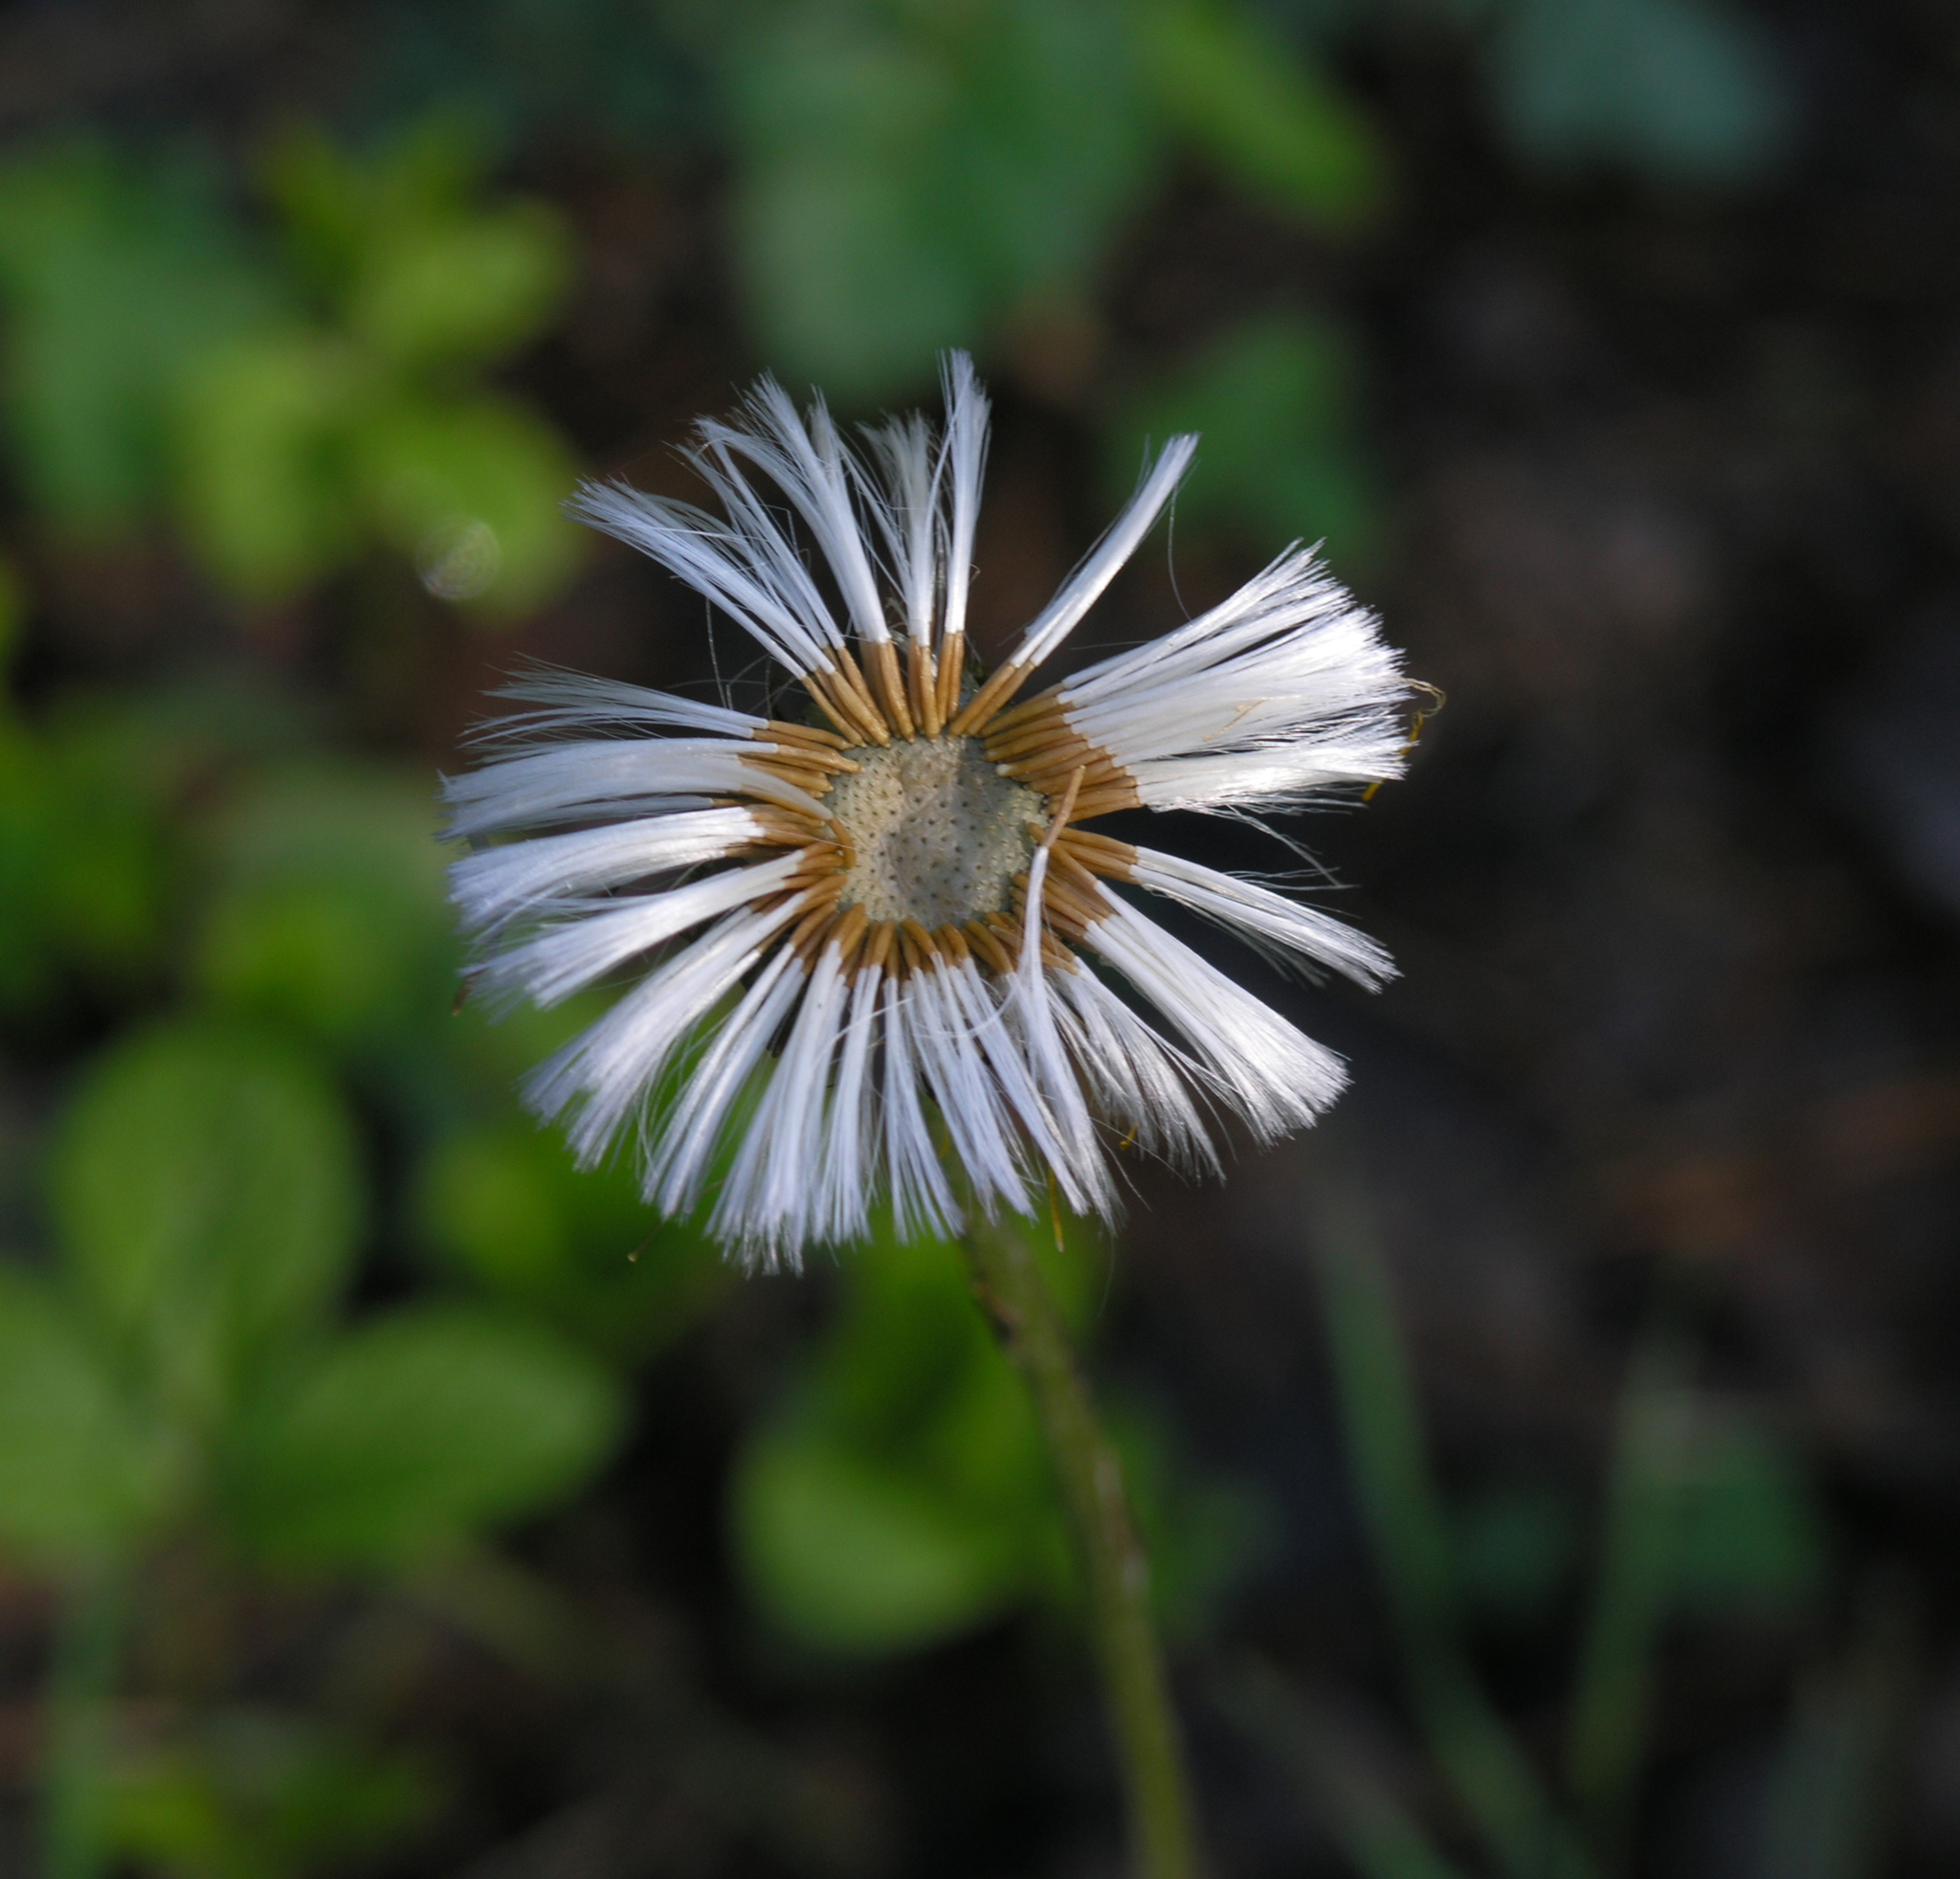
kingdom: Plantae
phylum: Tracheophyta
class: Magnoliopsida
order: Asterales
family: Asteraceae
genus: Tussilago
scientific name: Tussilago farfara
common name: Coltsfoot
